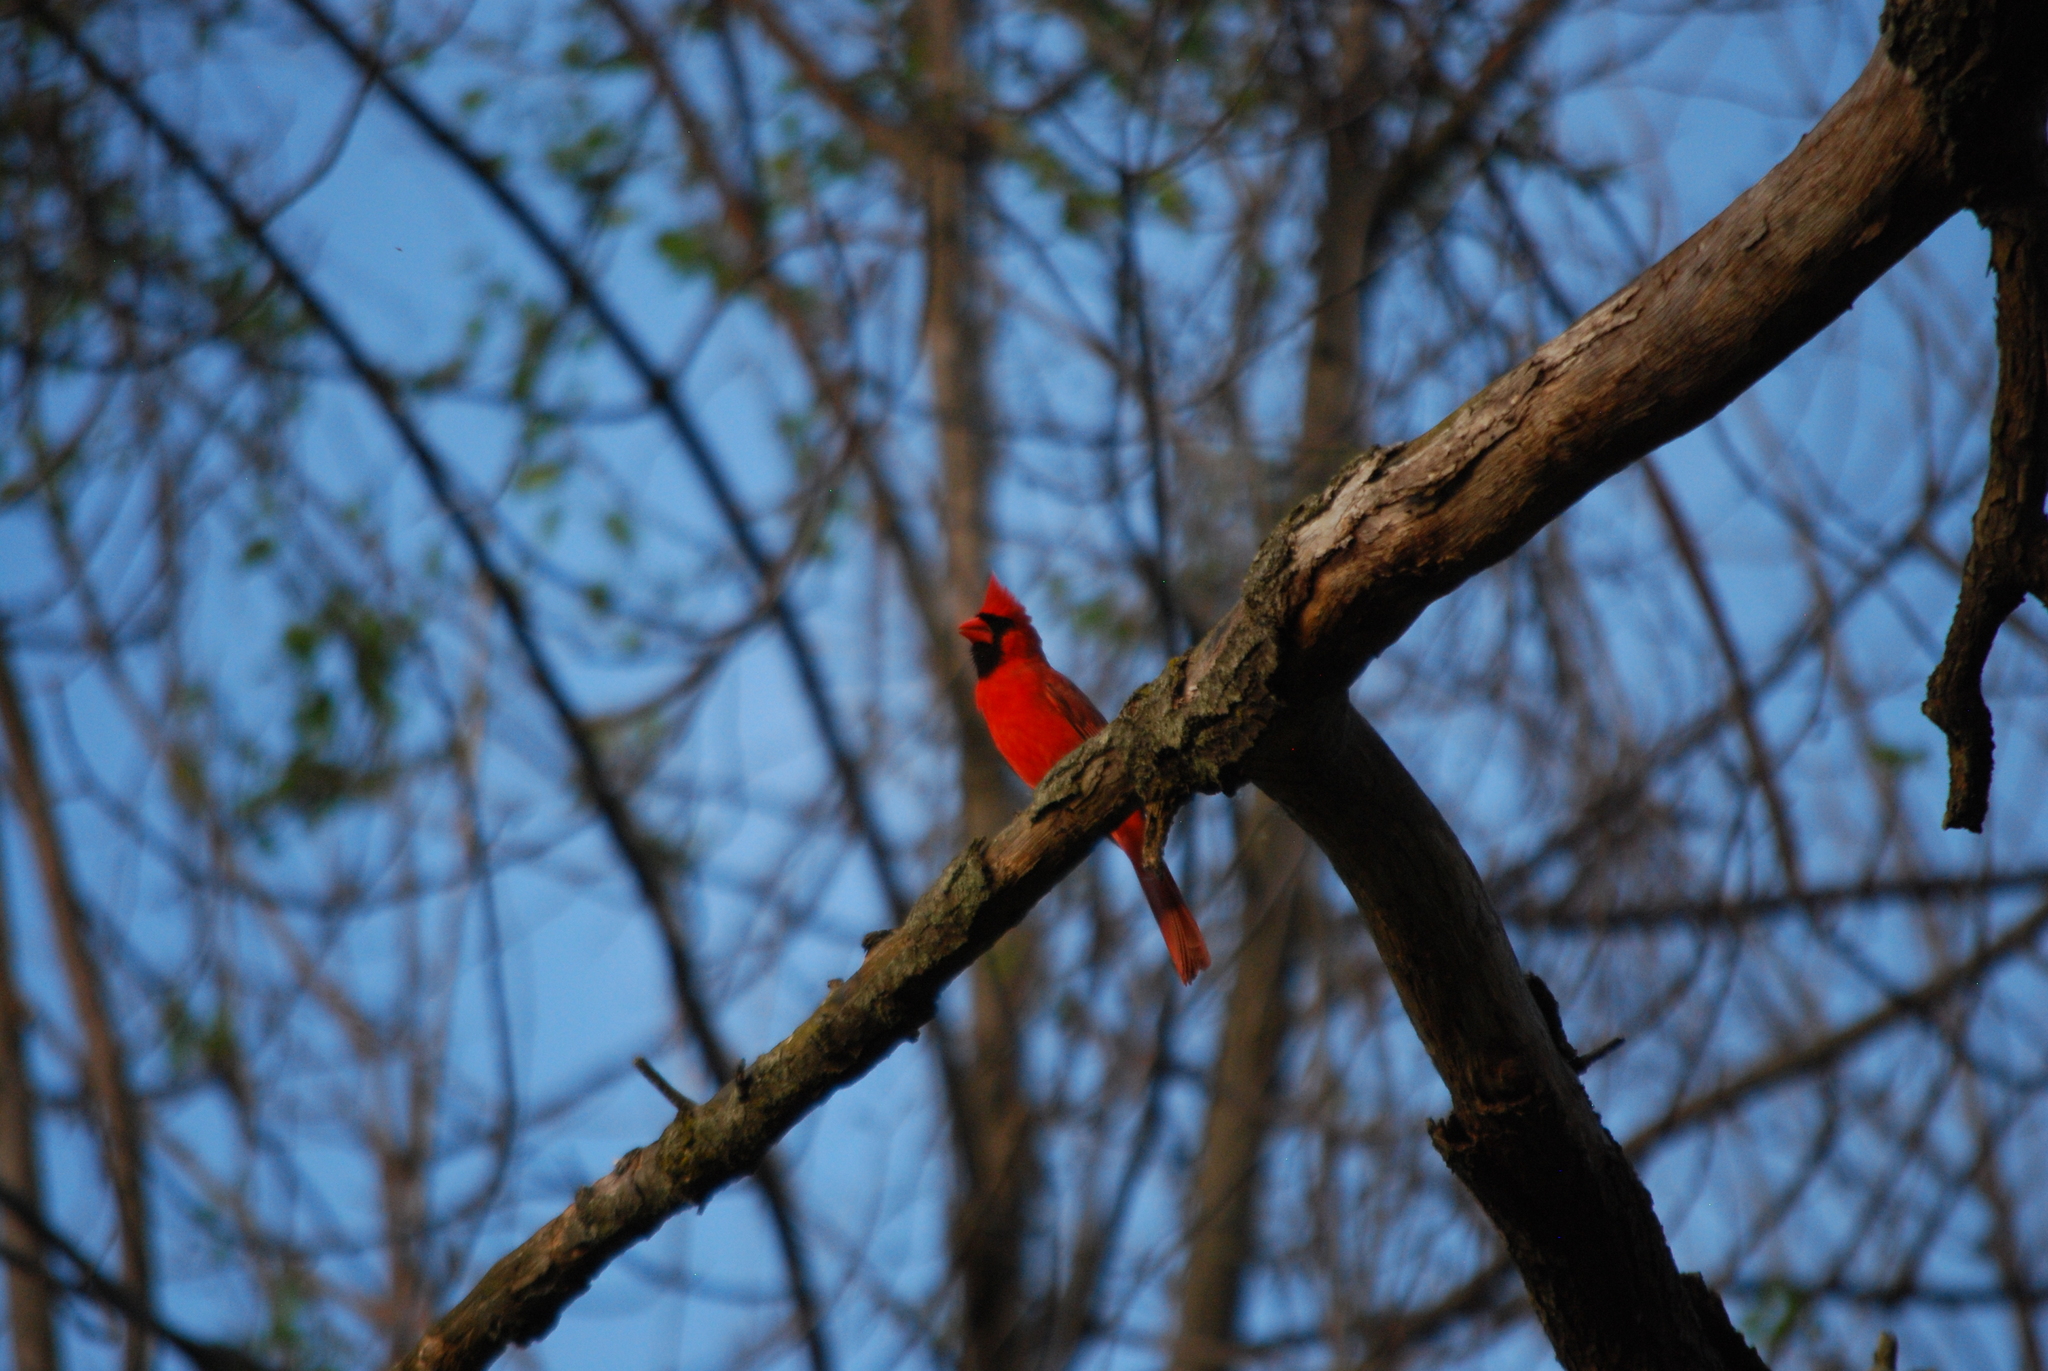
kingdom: Animalia
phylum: Chordata
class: Aves
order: Passeriformes
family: Cardinalidae
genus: Cardinalis
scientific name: Cardinalis cardinalis
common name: Northern cardinal
